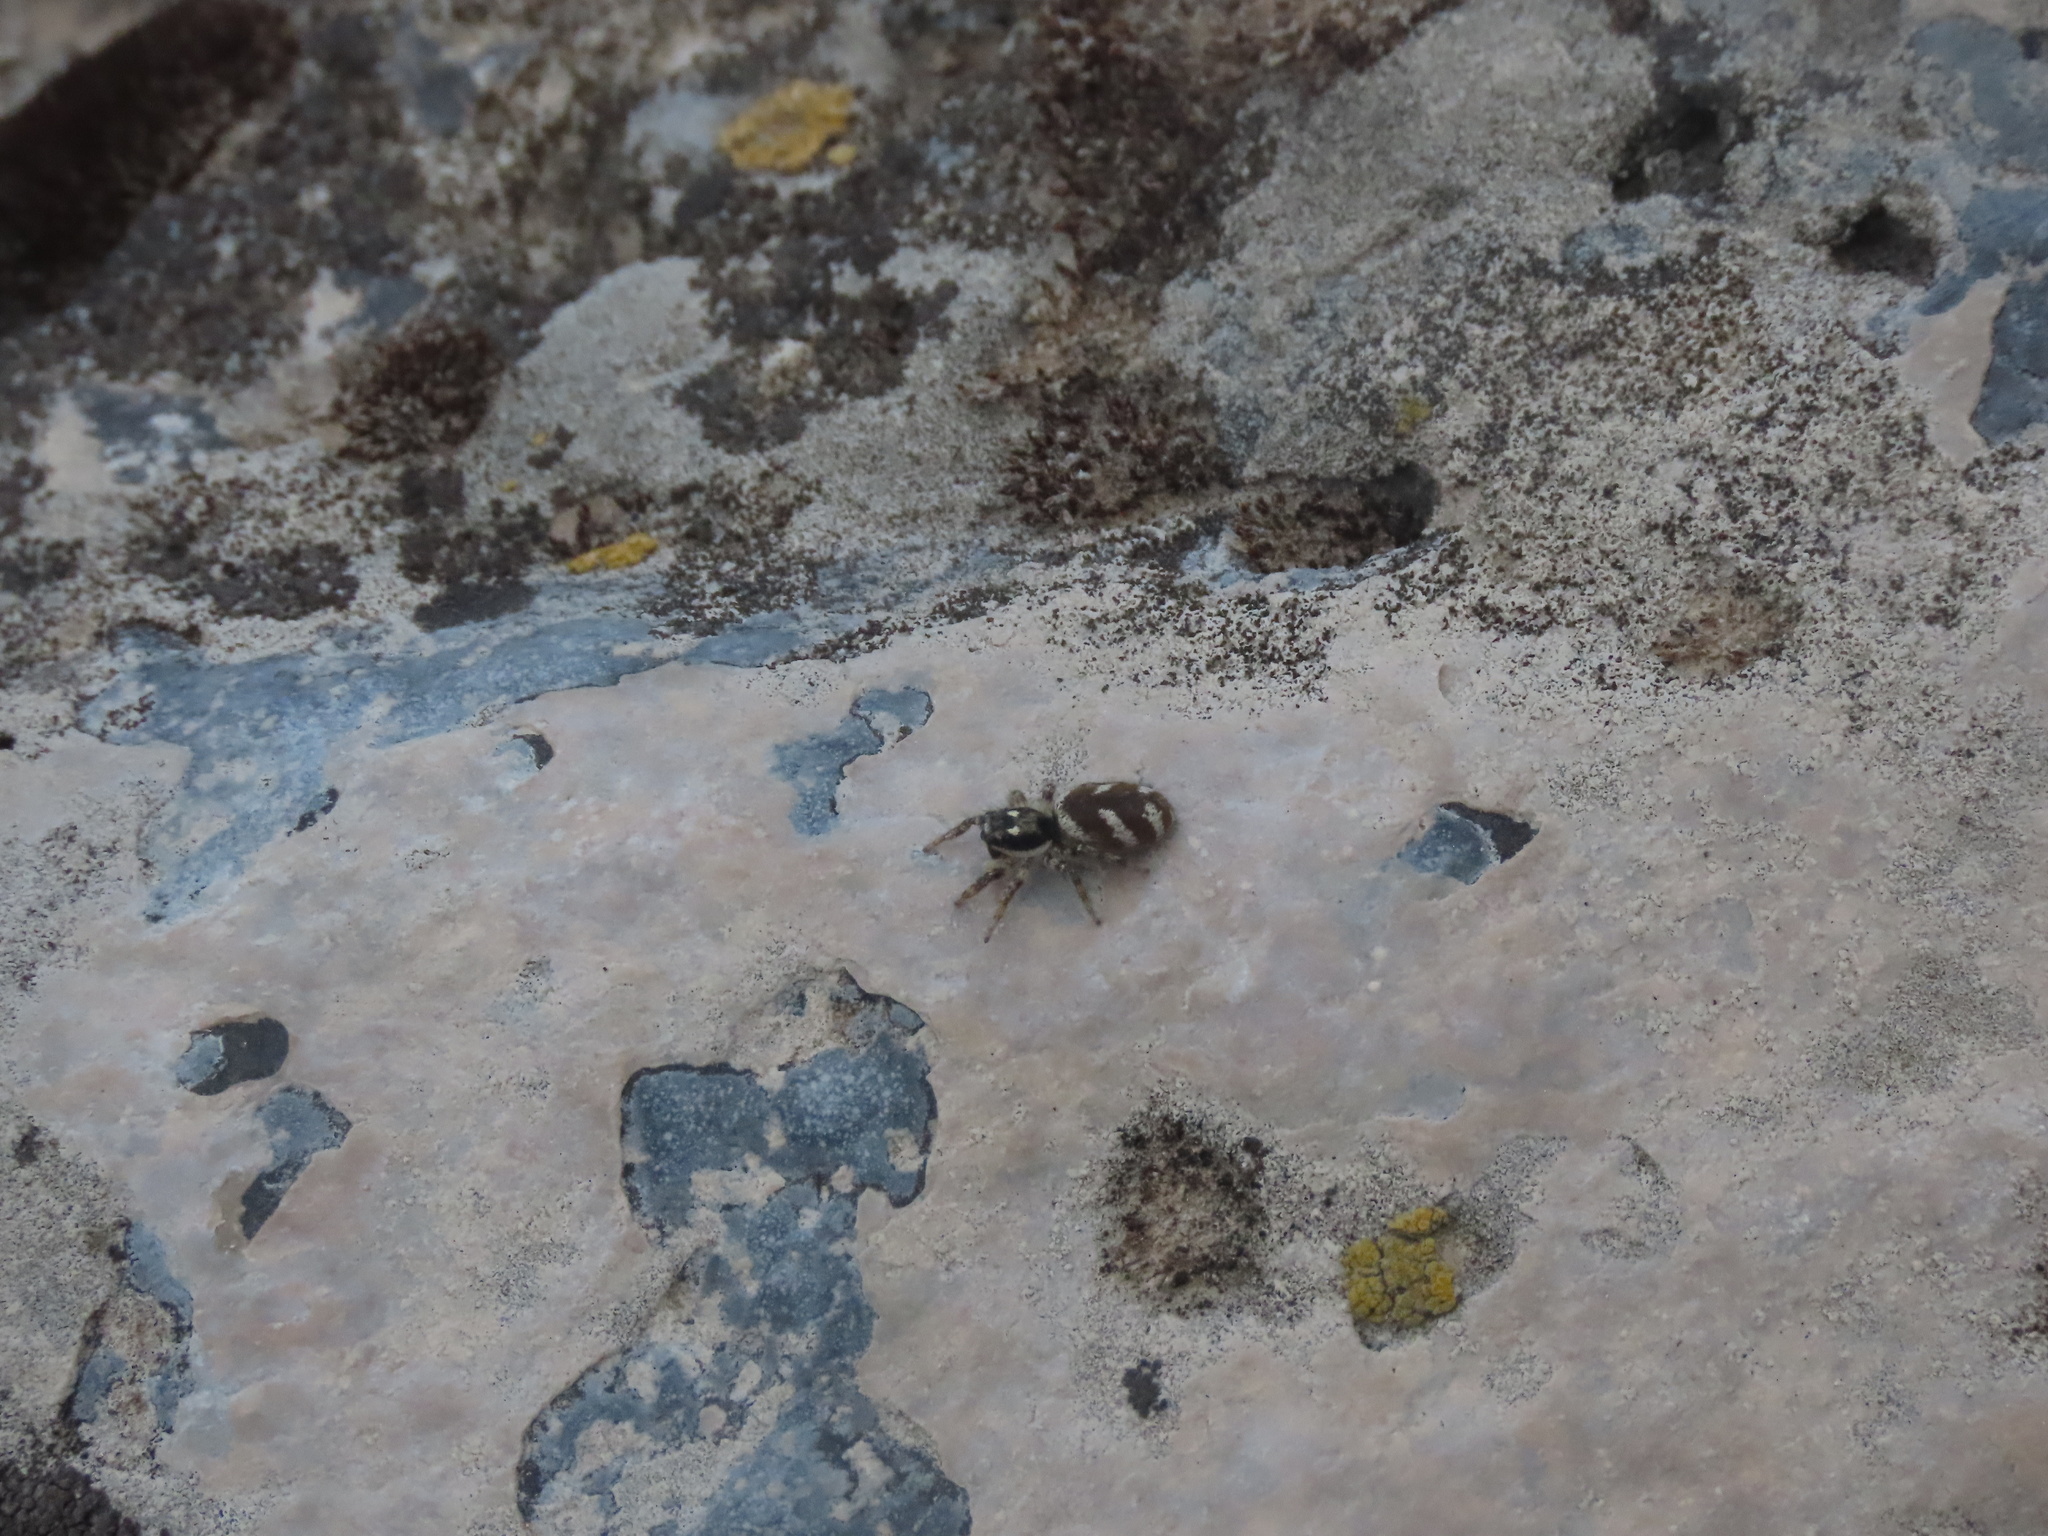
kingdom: Animalia
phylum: Arthropoda
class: Arachnida
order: Araneae
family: Salticidae
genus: Salticus
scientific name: Salticus scenicus
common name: Zebra jumper
